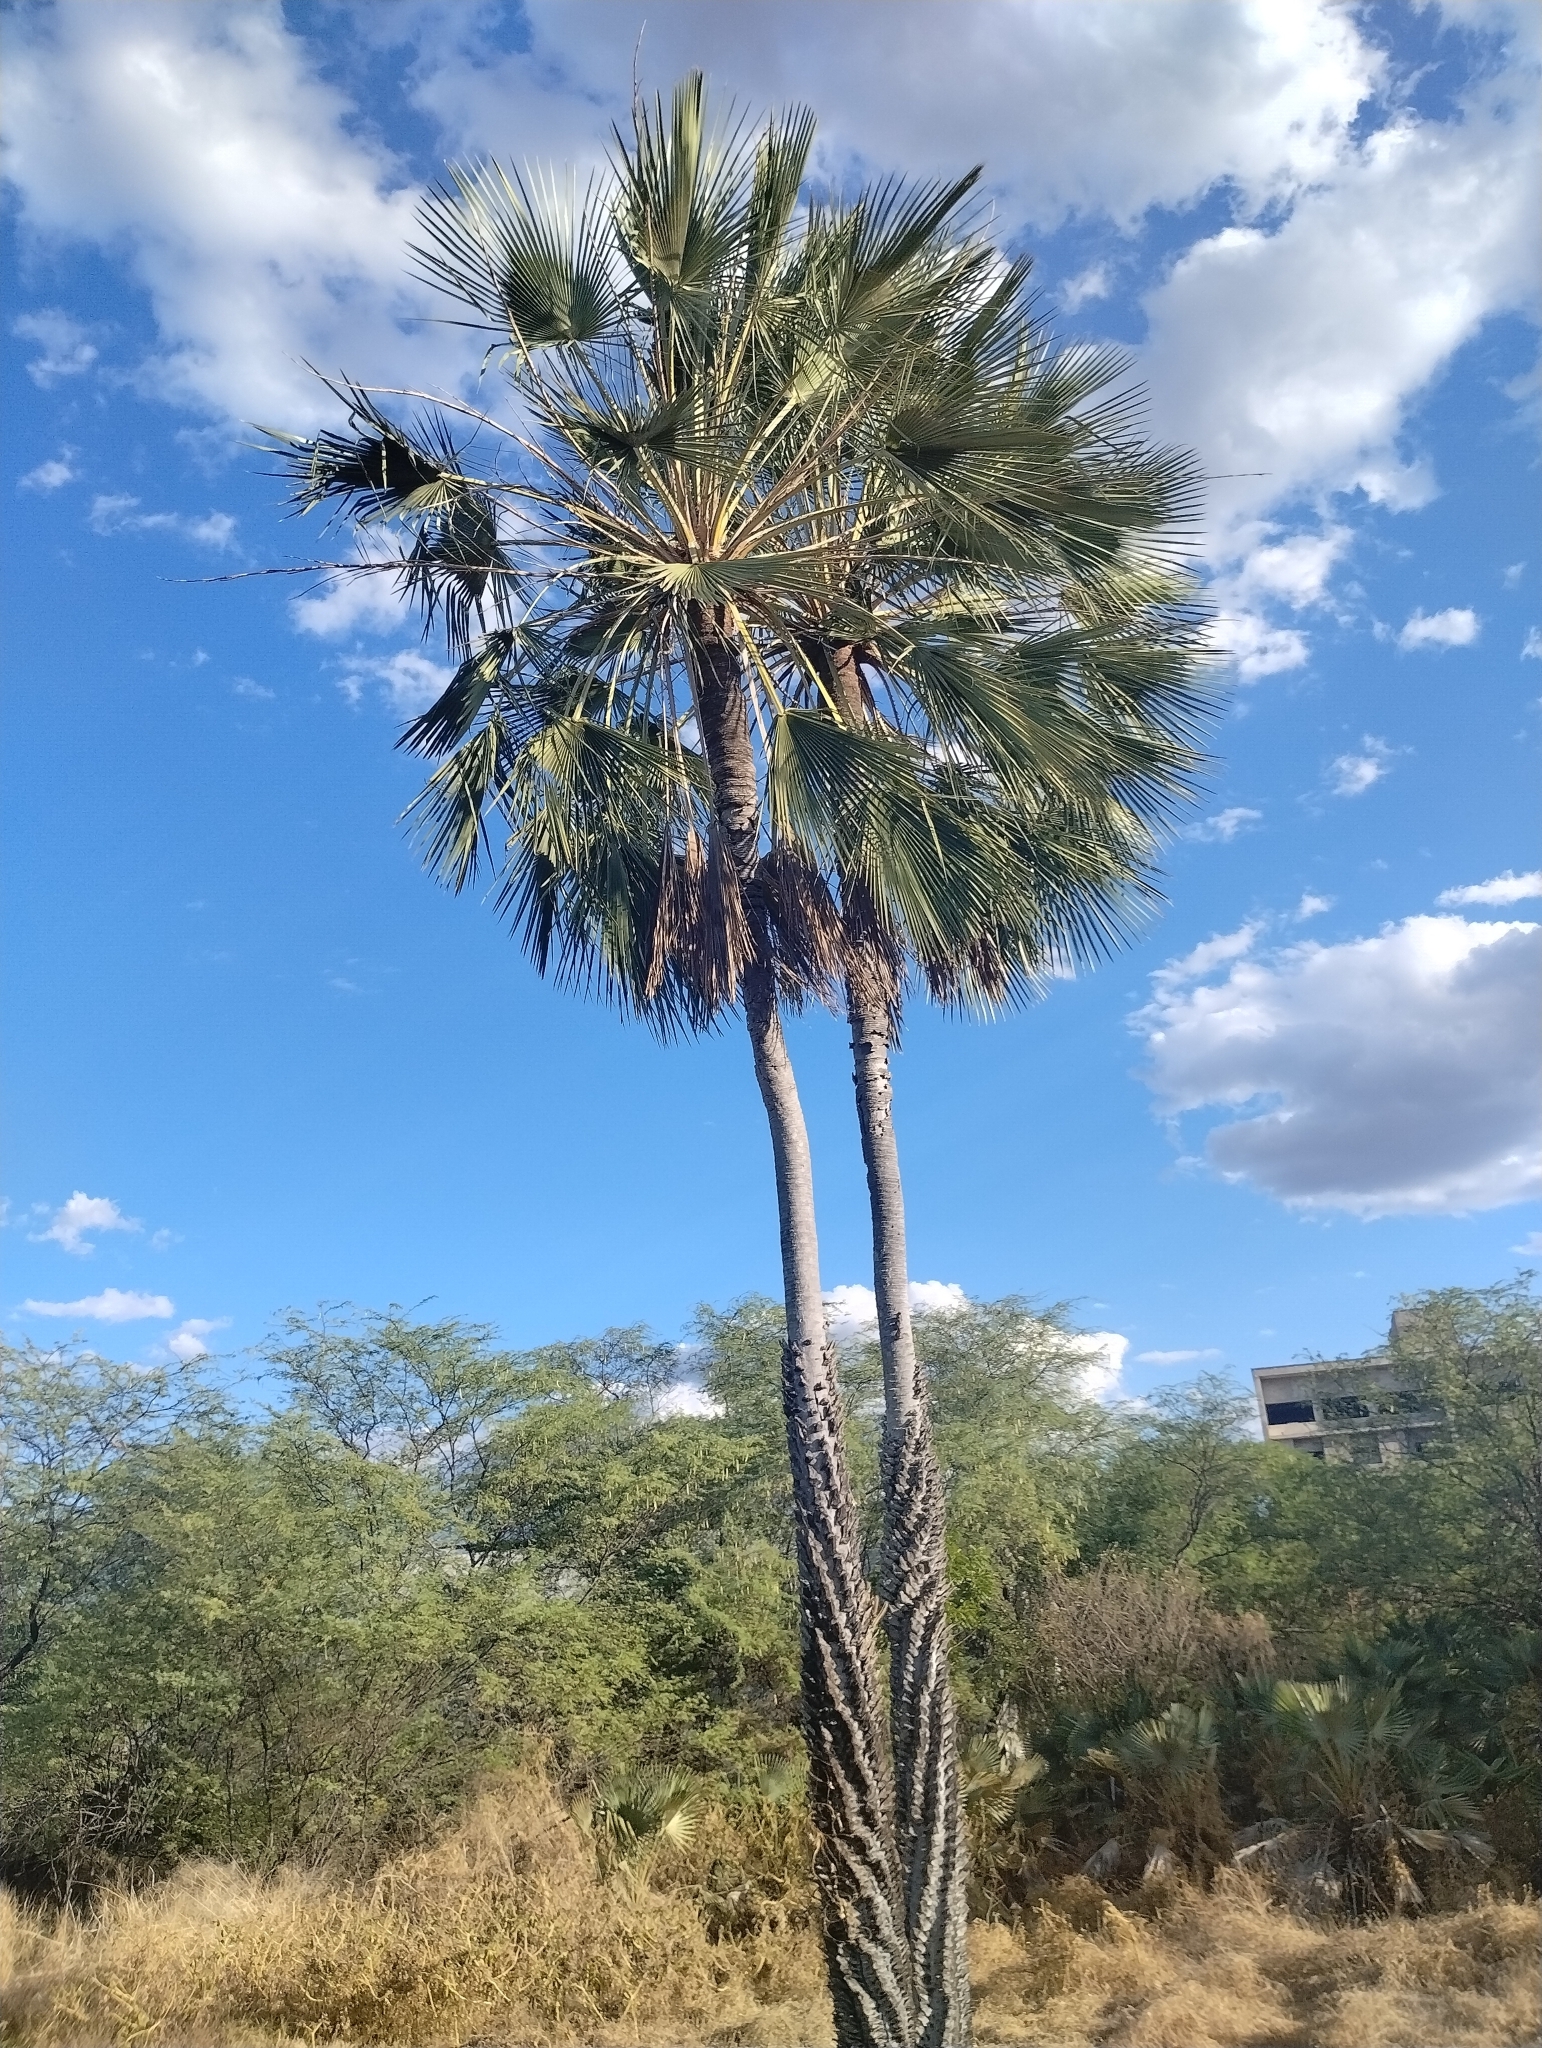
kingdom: Plantae
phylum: Tracheophyta
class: Liliopsida
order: Arecales
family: Arecaceae
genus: Copernicia
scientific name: Copernicia prunifera
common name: Carnauba palm
